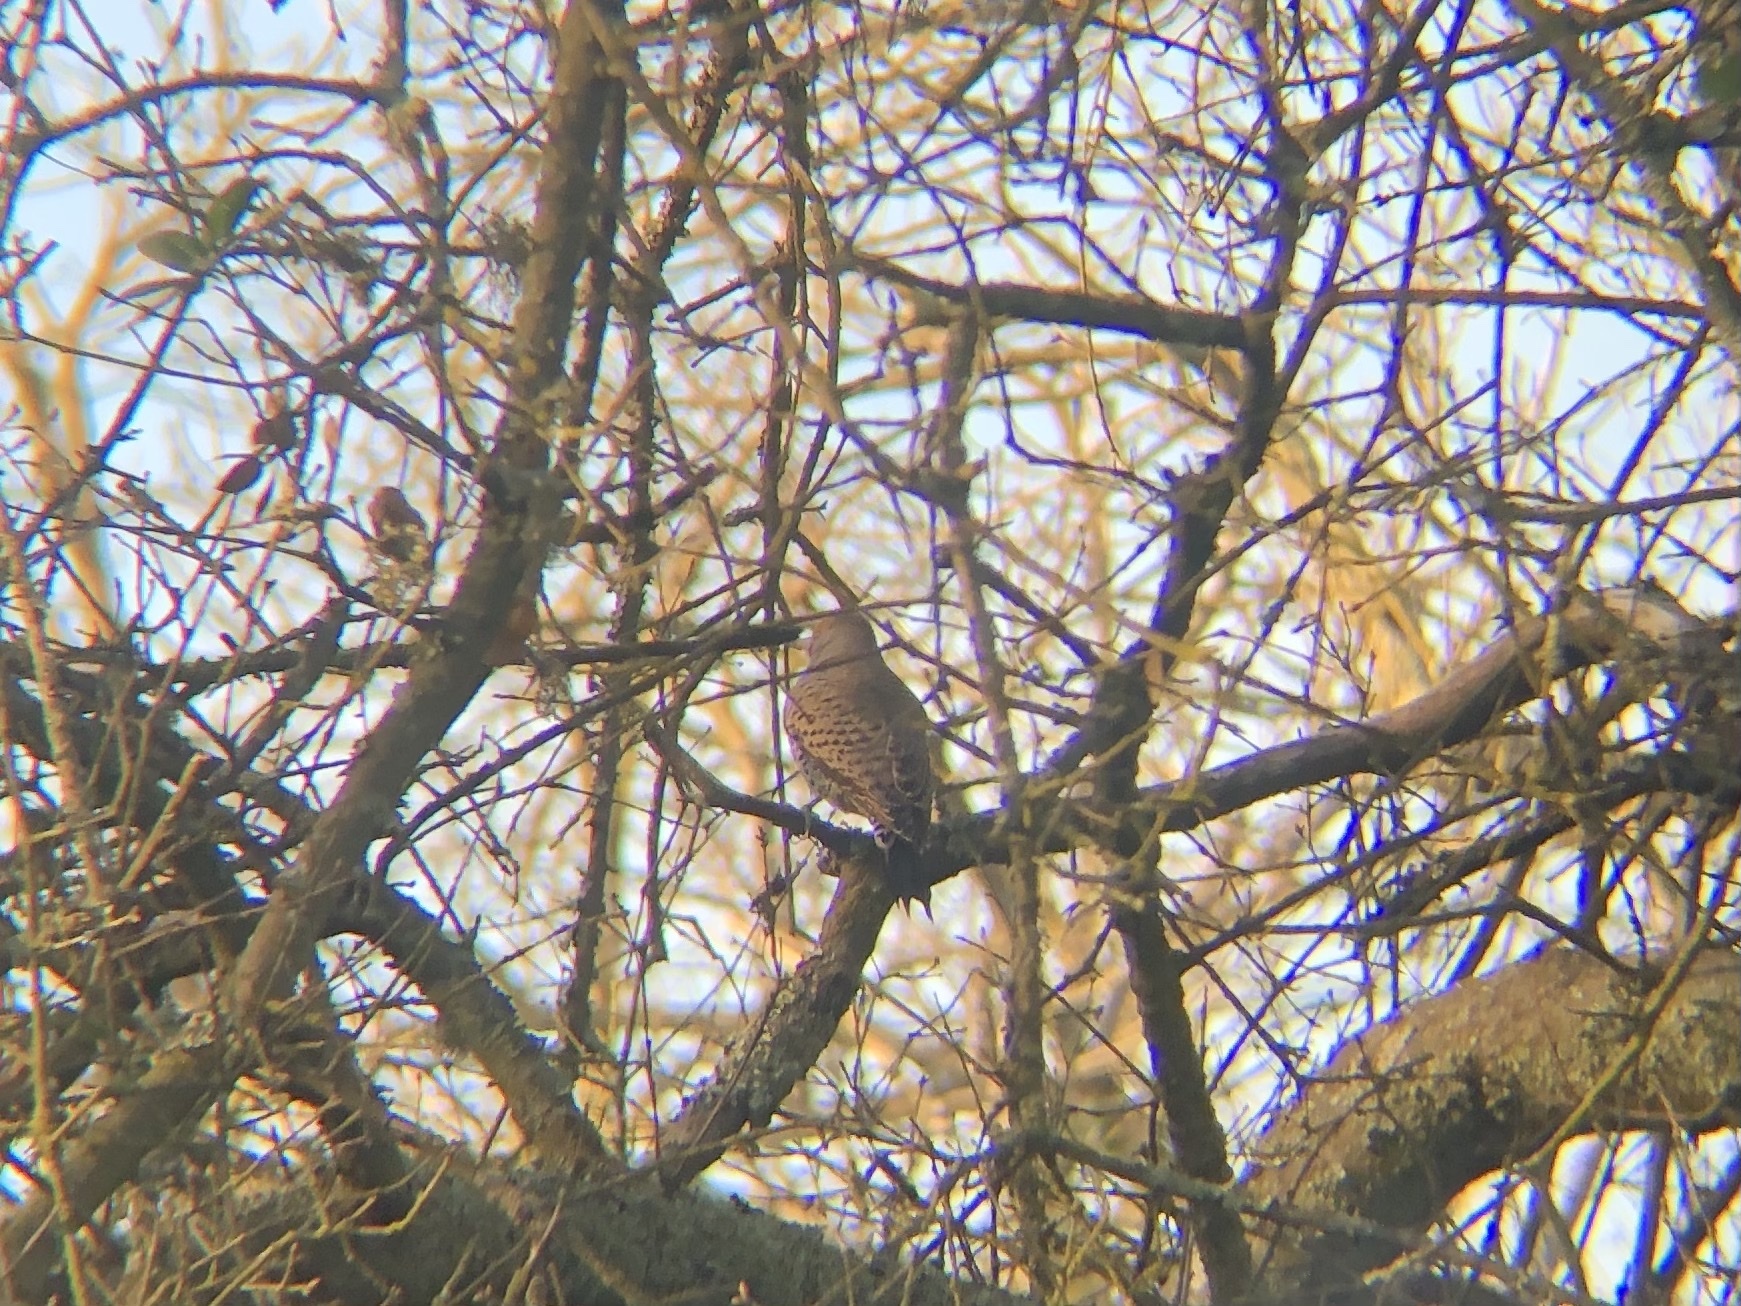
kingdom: Animalia
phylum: Chordata
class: Aves
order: Piciformes
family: Picidae
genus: Colaptes
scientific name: Colaptes auratus
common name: Northern flicker
